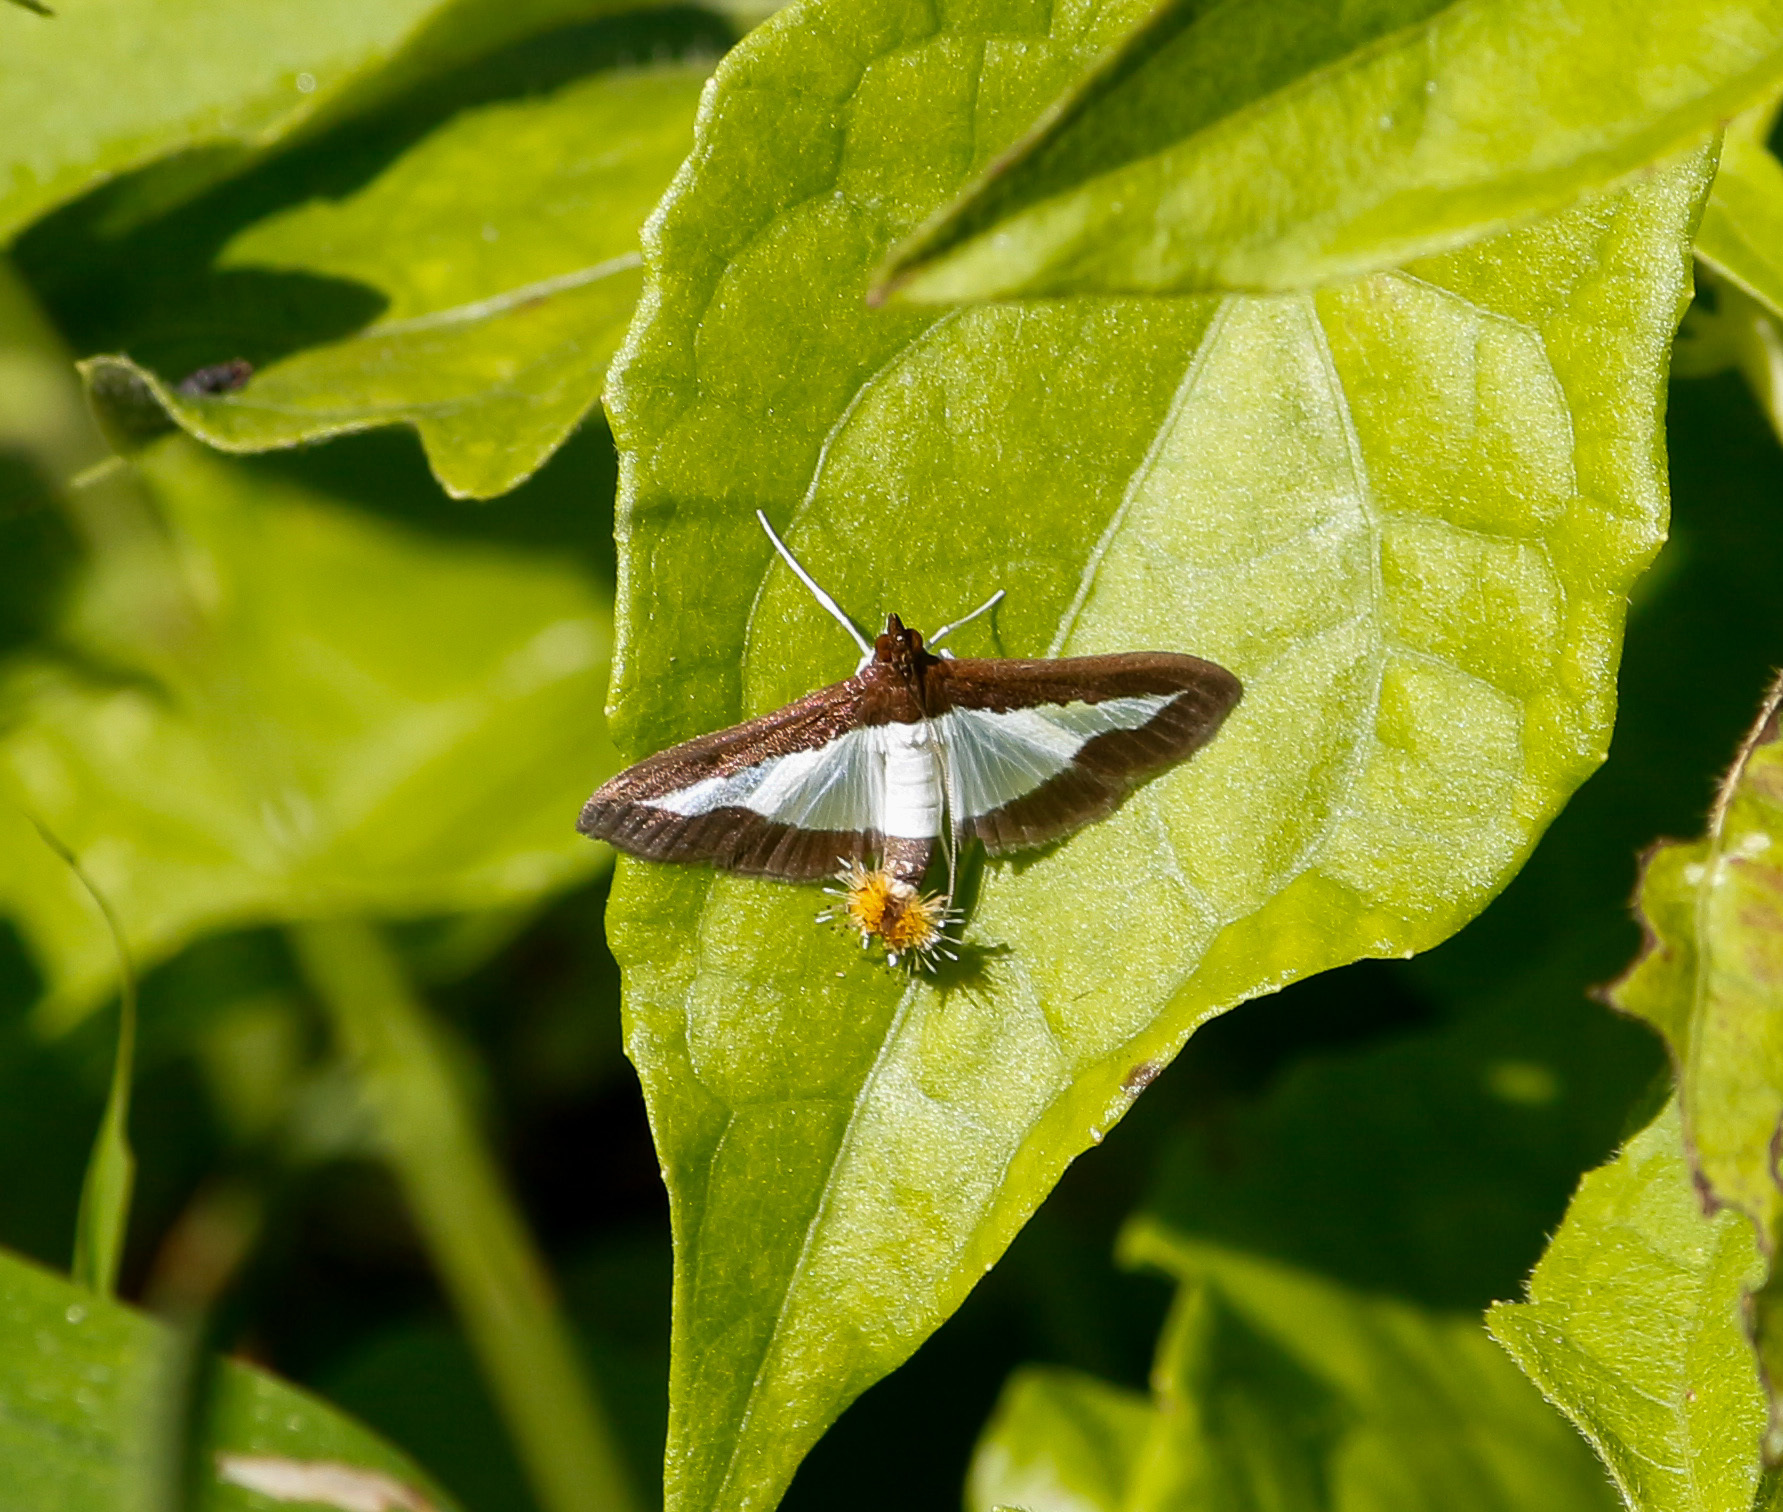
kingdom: Animalia
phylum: Arthropoda
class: Insecta
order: Lepidoptera
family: Crambidae
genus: Diaphania
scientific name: Diaphania indica
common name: Cucumber moth
